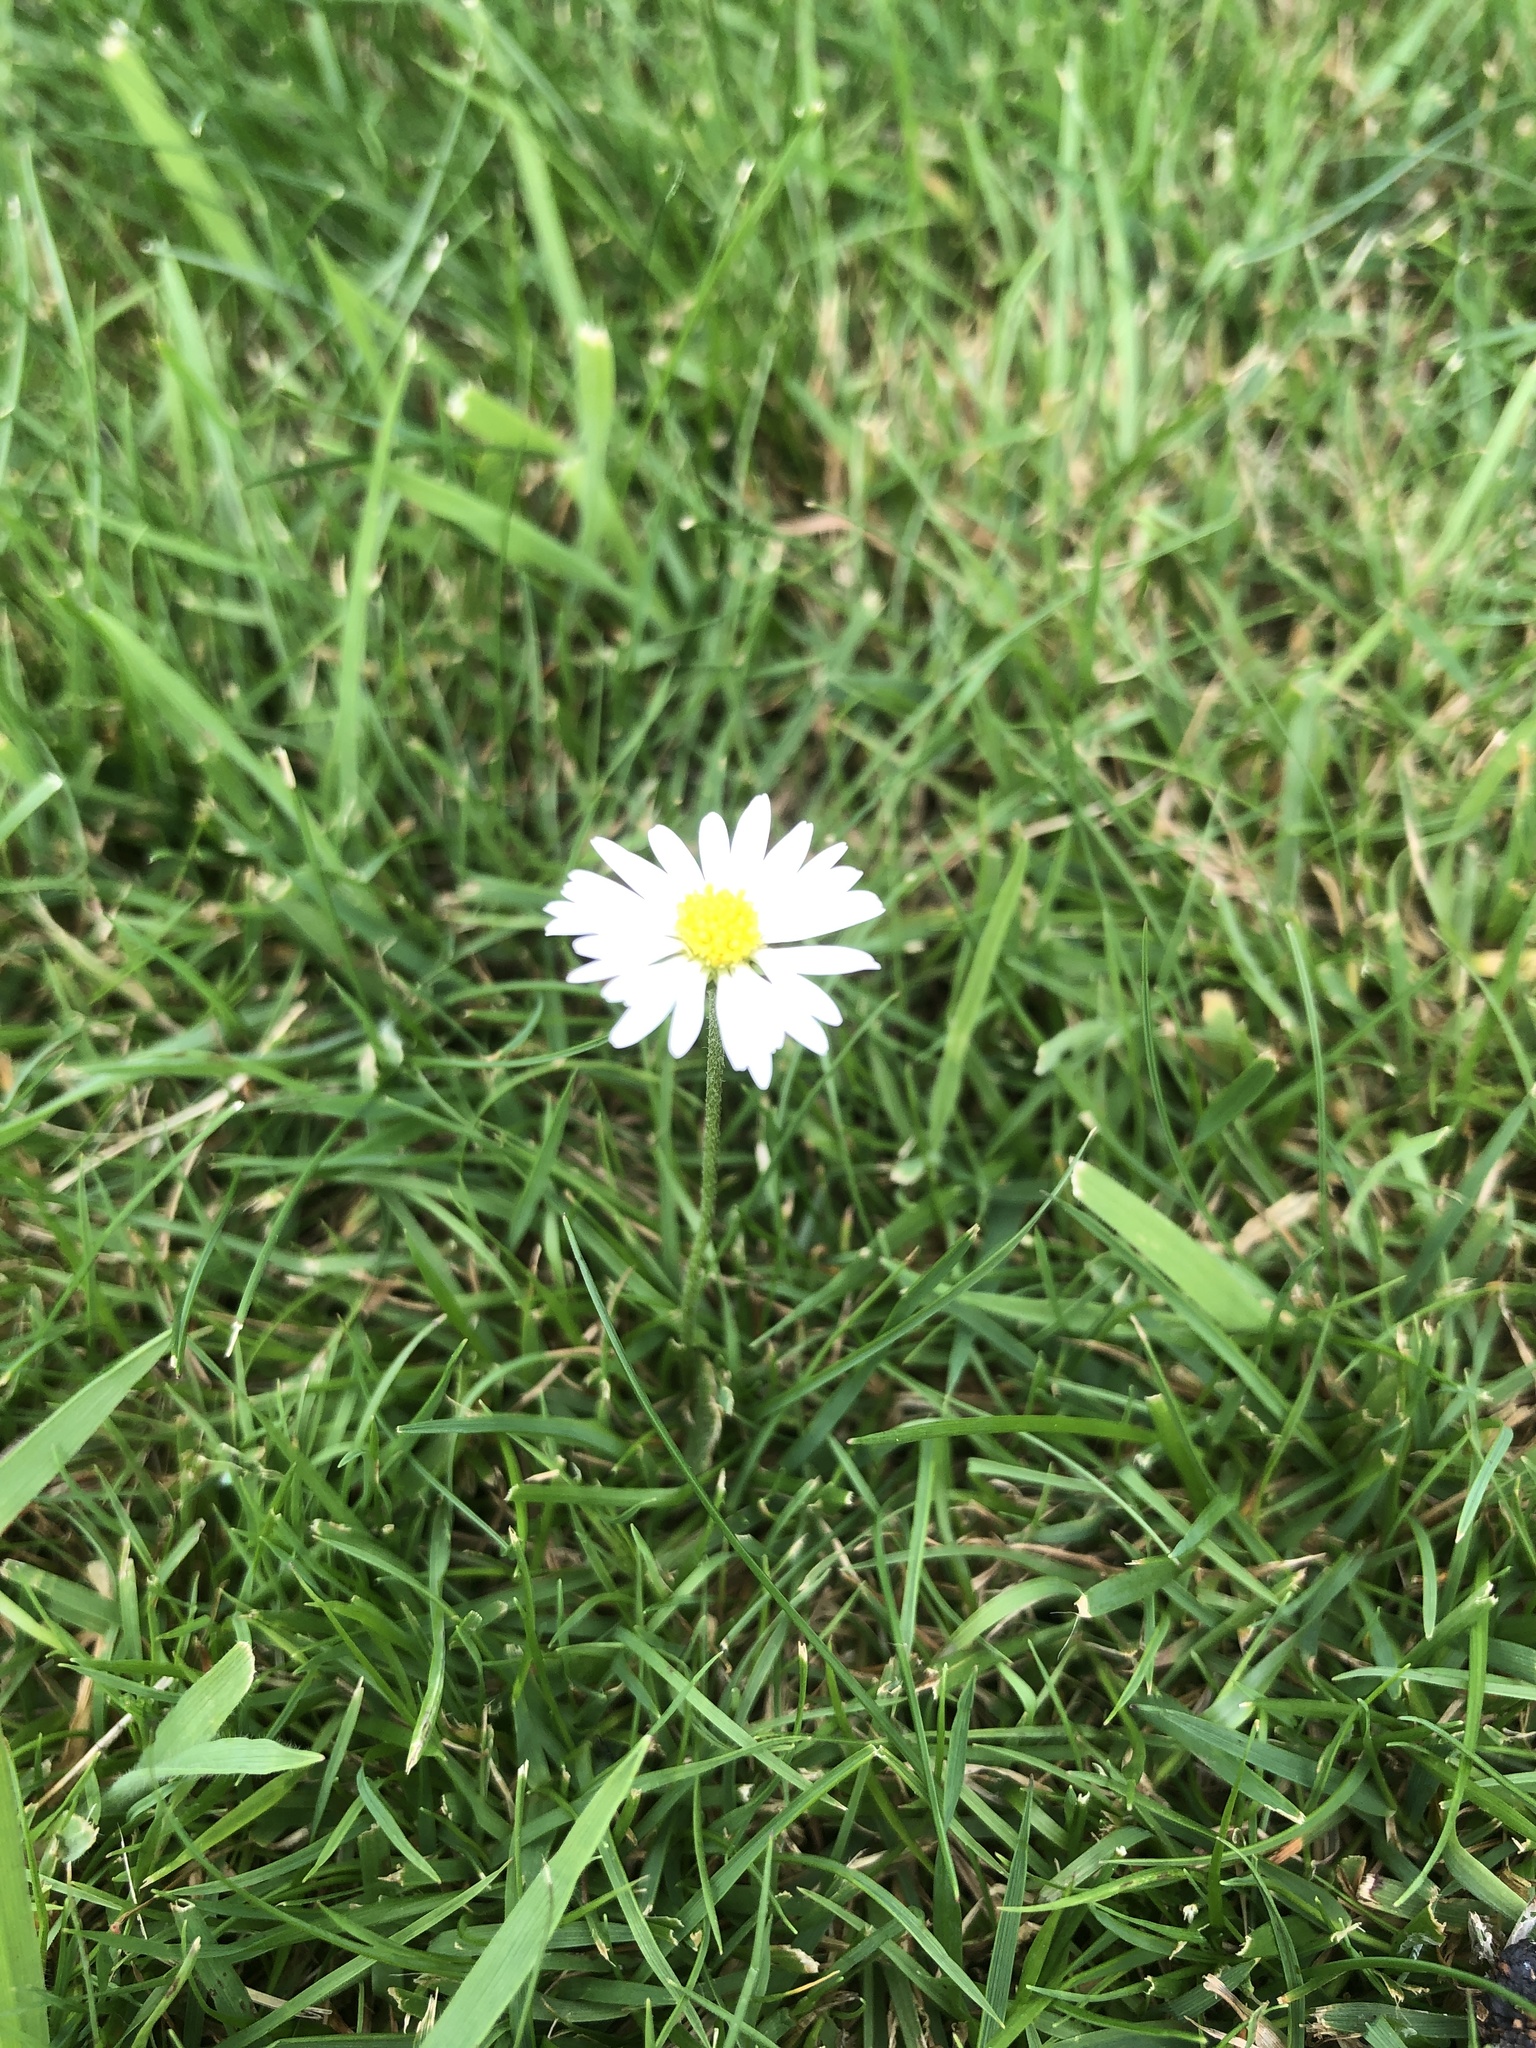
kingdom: Plantae
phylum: Tracheophyta
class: Magnoliopsida
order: Asterales
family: Asteraceae
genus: Bellis
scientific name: Bellis perennis
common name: Lawndaisy
